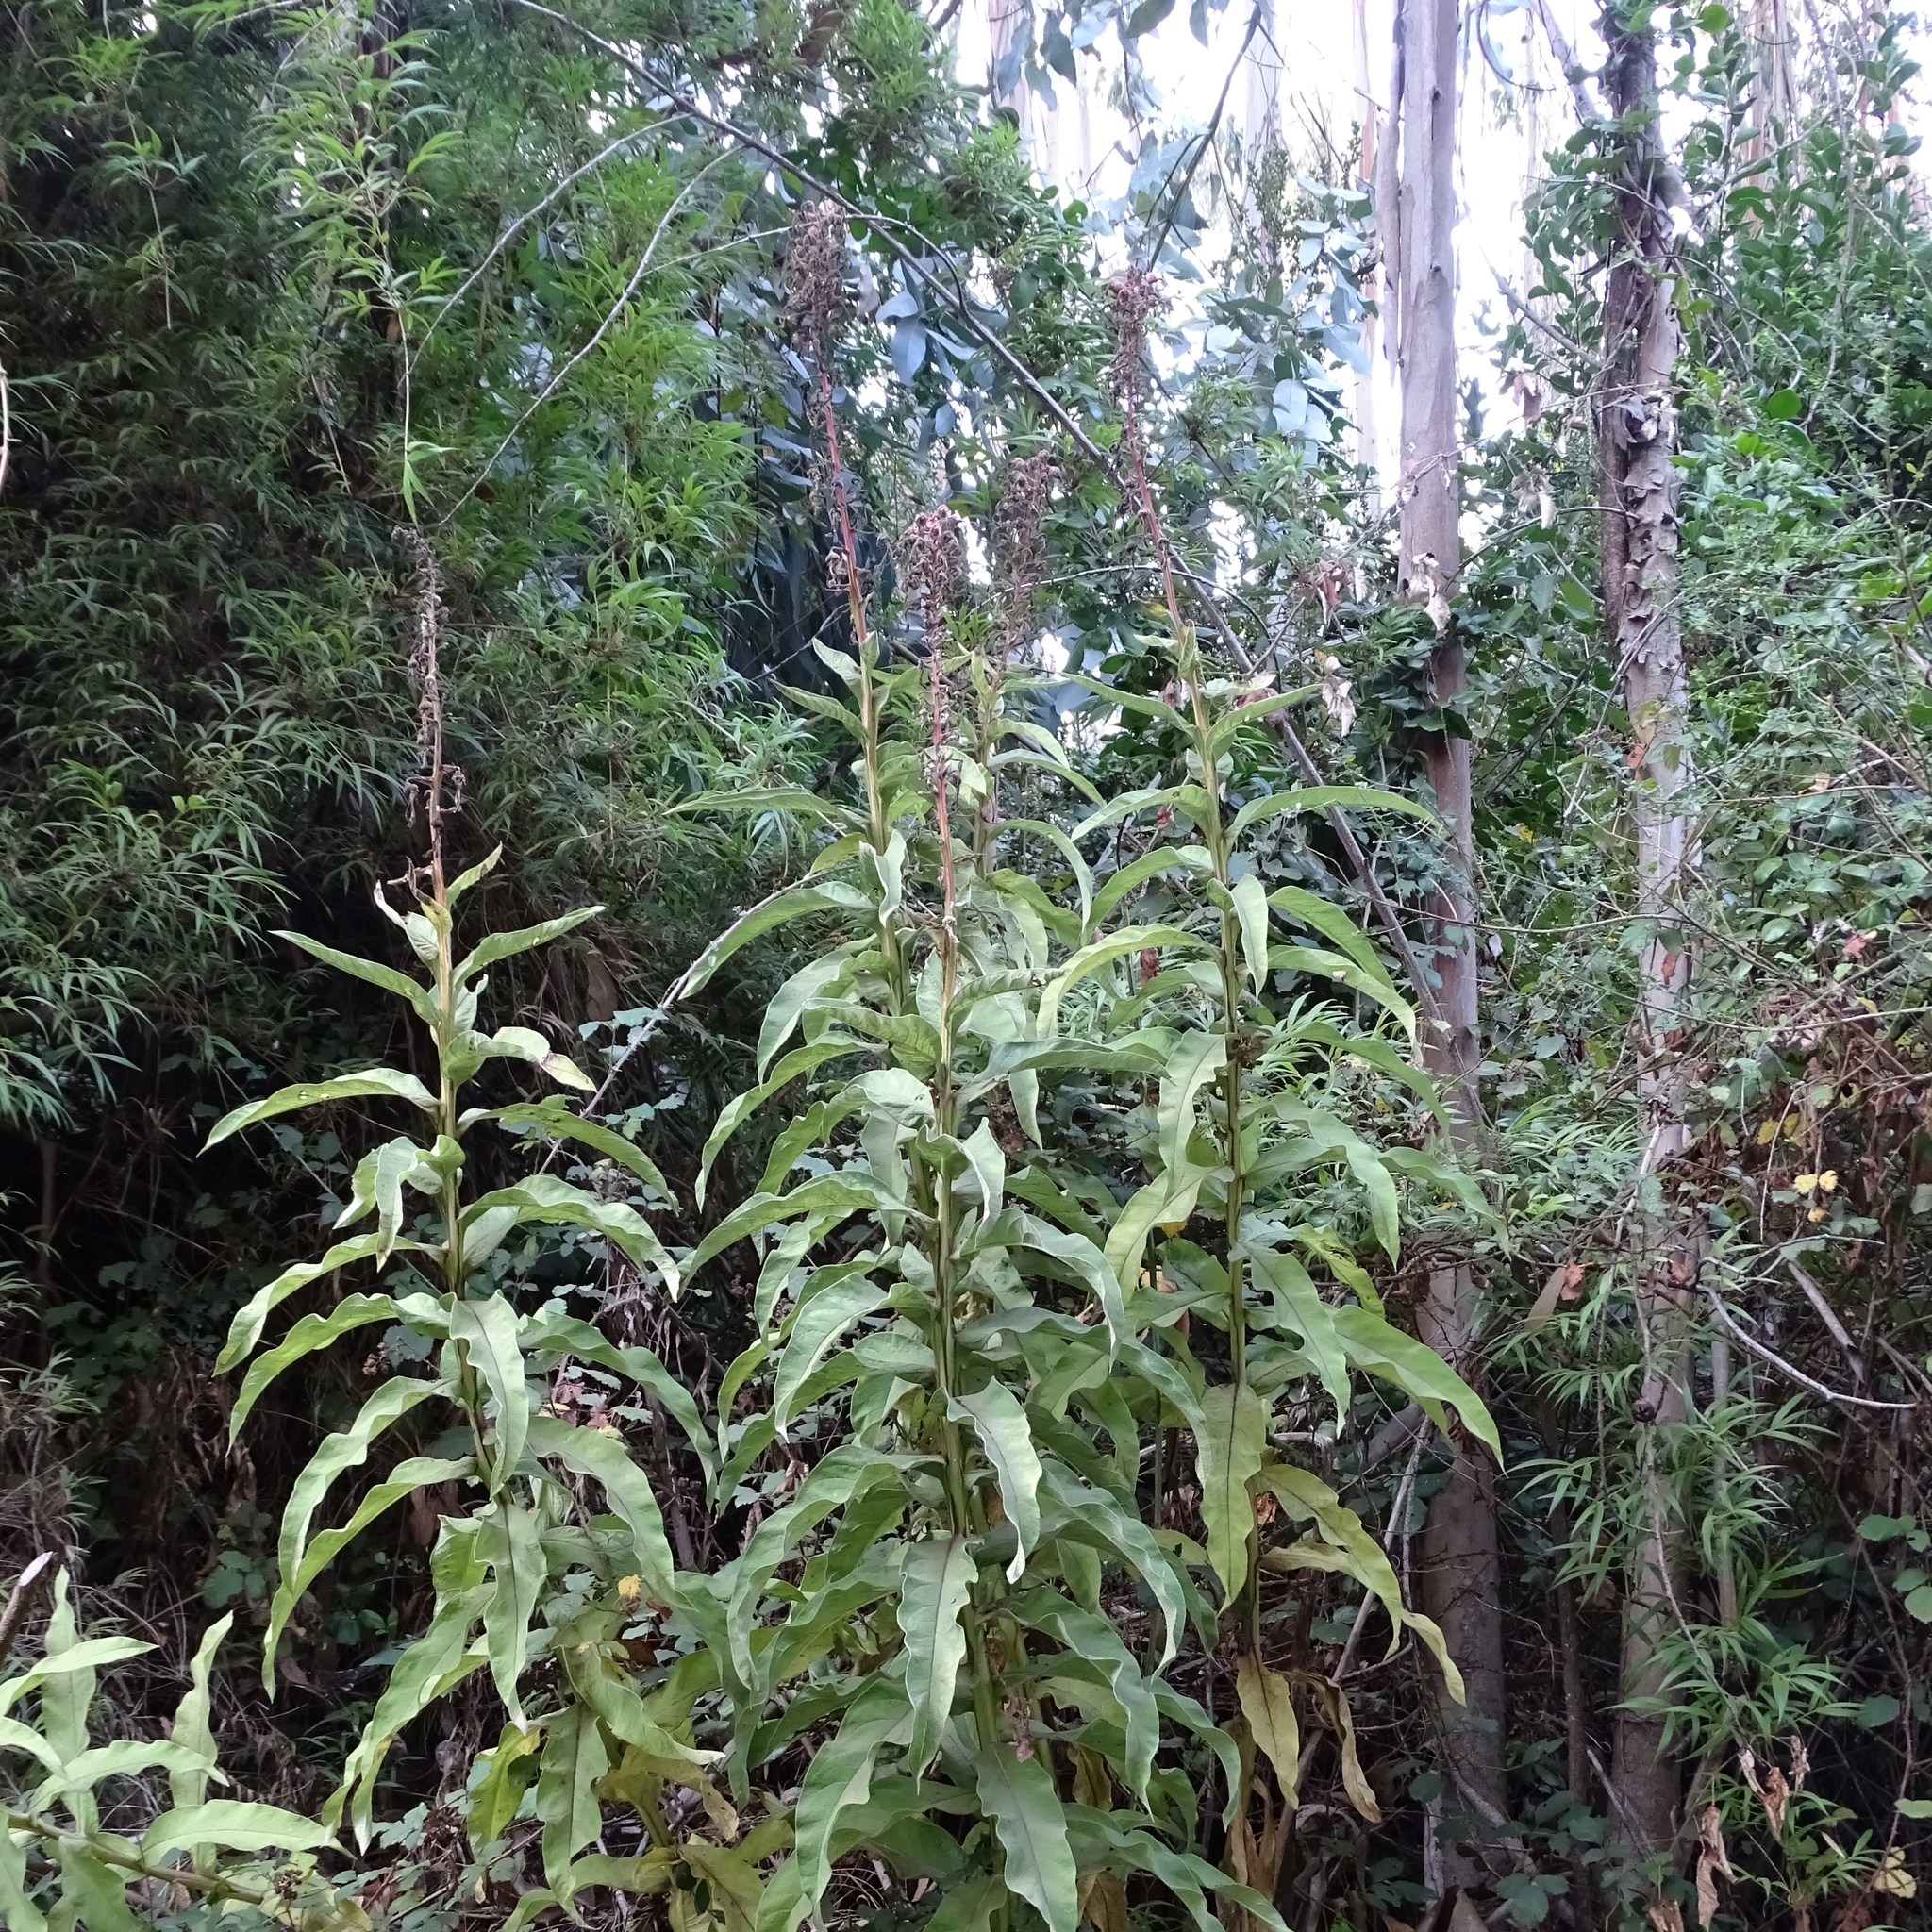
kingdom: Plantae
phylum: Tracheophyta
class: Magnoliopsida
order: Asterales
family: Campanulaceae
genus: Lobelia
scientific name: Lobelia tupa
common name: Devil's-tobacco
